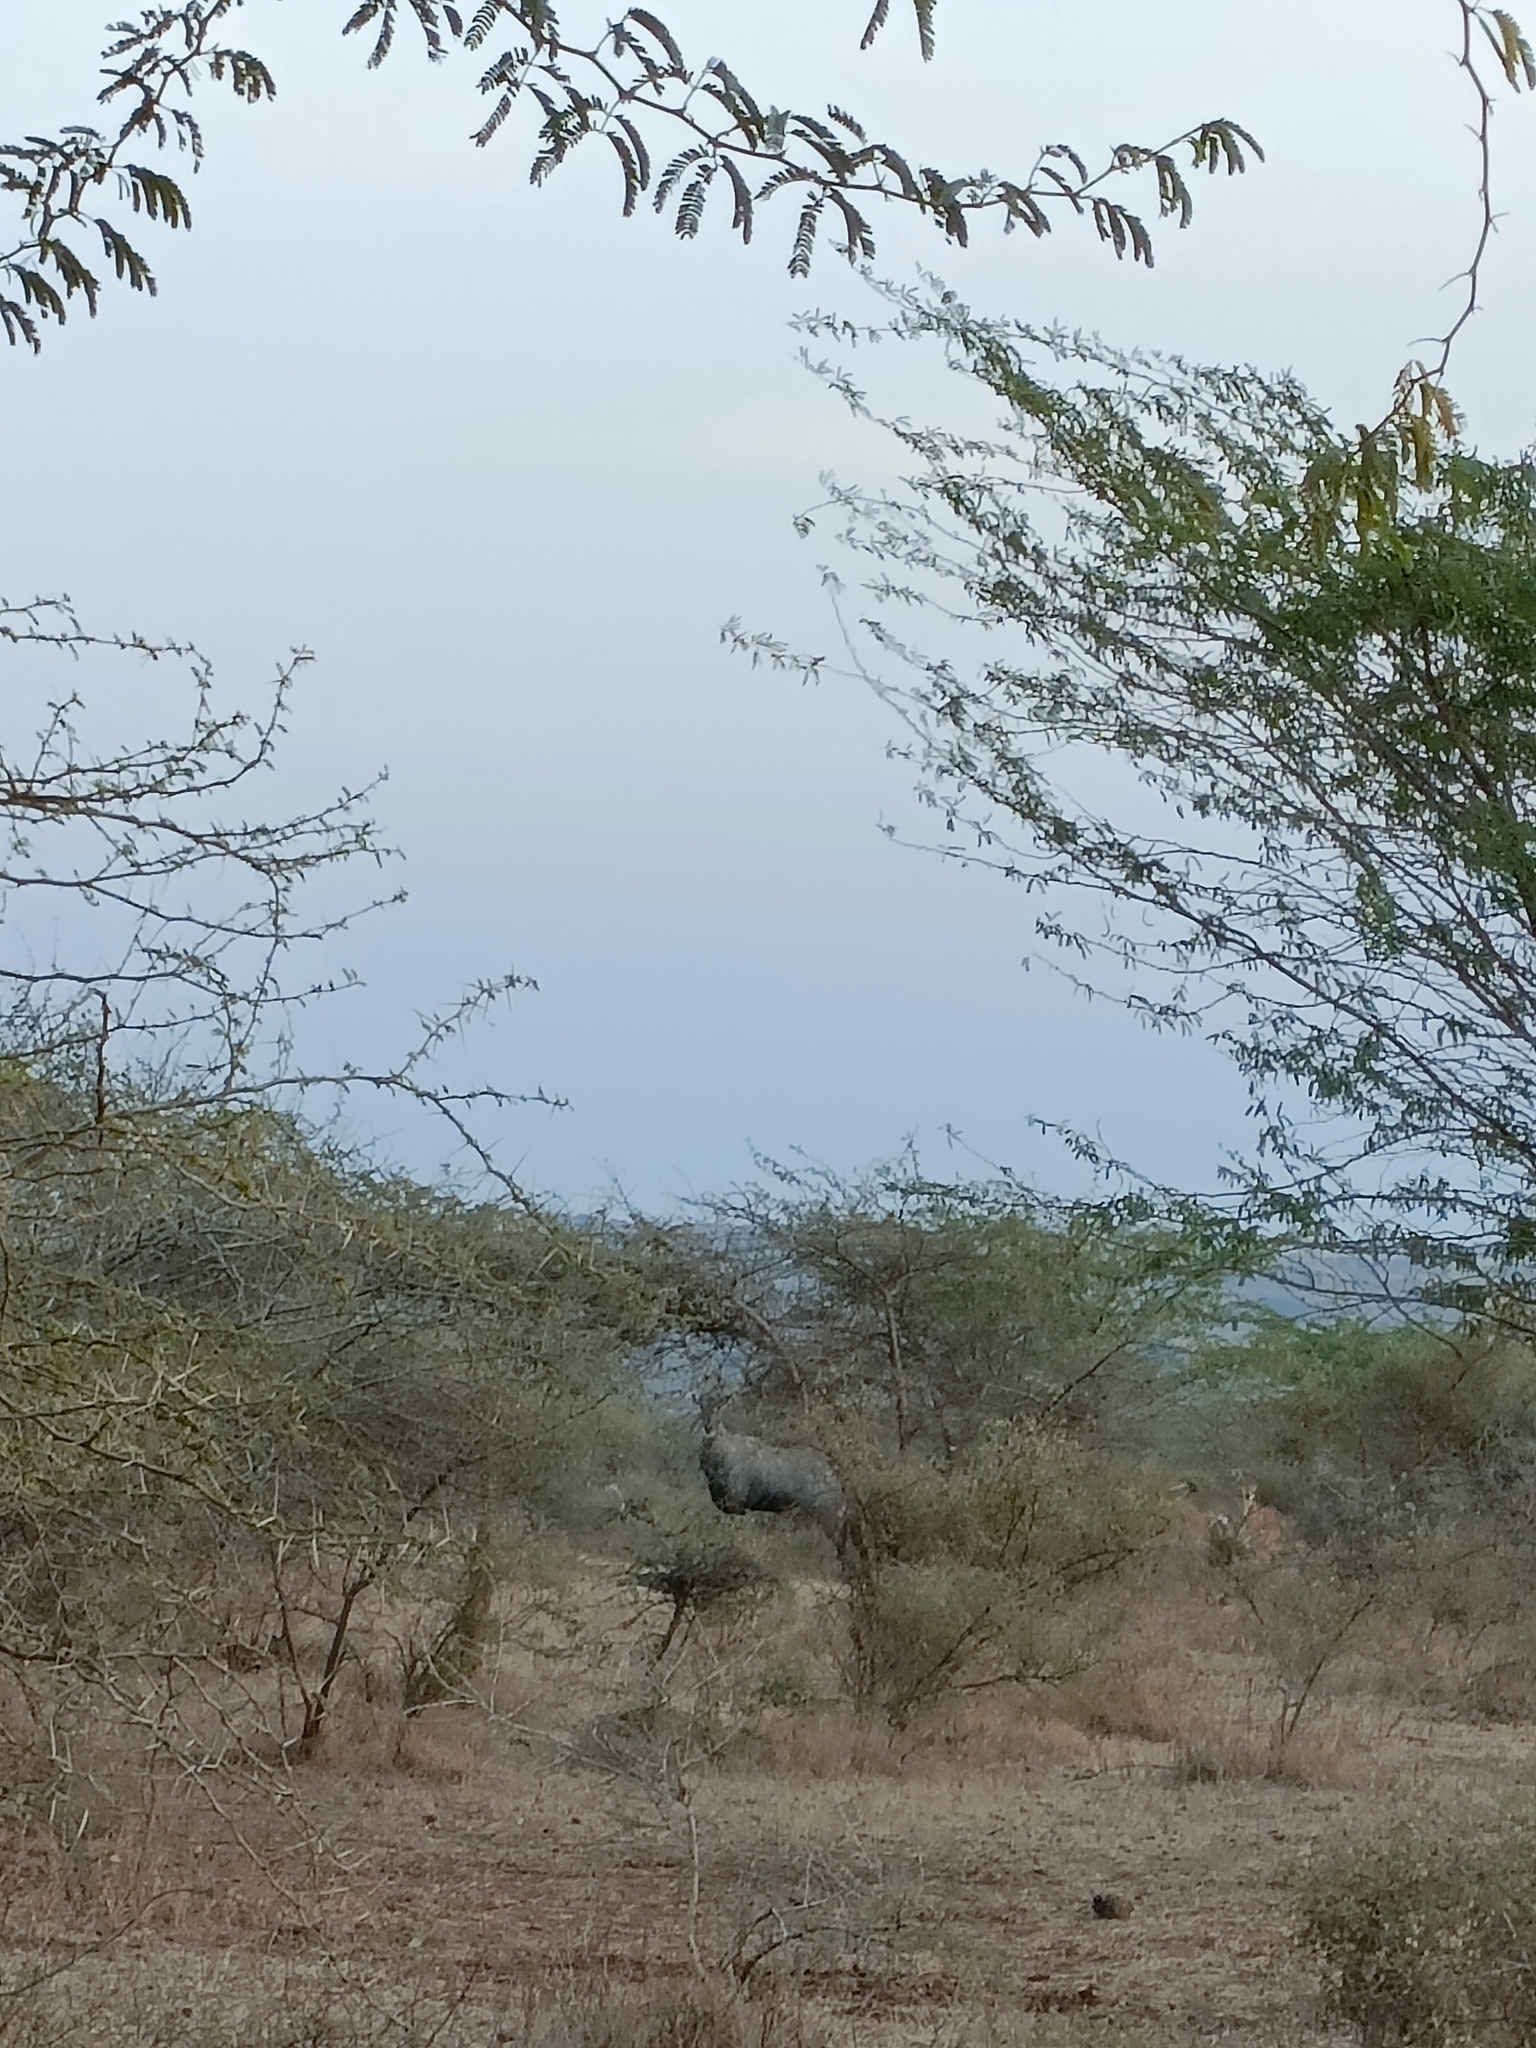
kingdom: Animalia
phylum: Chordata
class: Mammalia
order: Artiodactyla
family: Bovidae
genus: Boselaphus
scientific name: Boselaphus tragocamelus
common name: Nilgai
